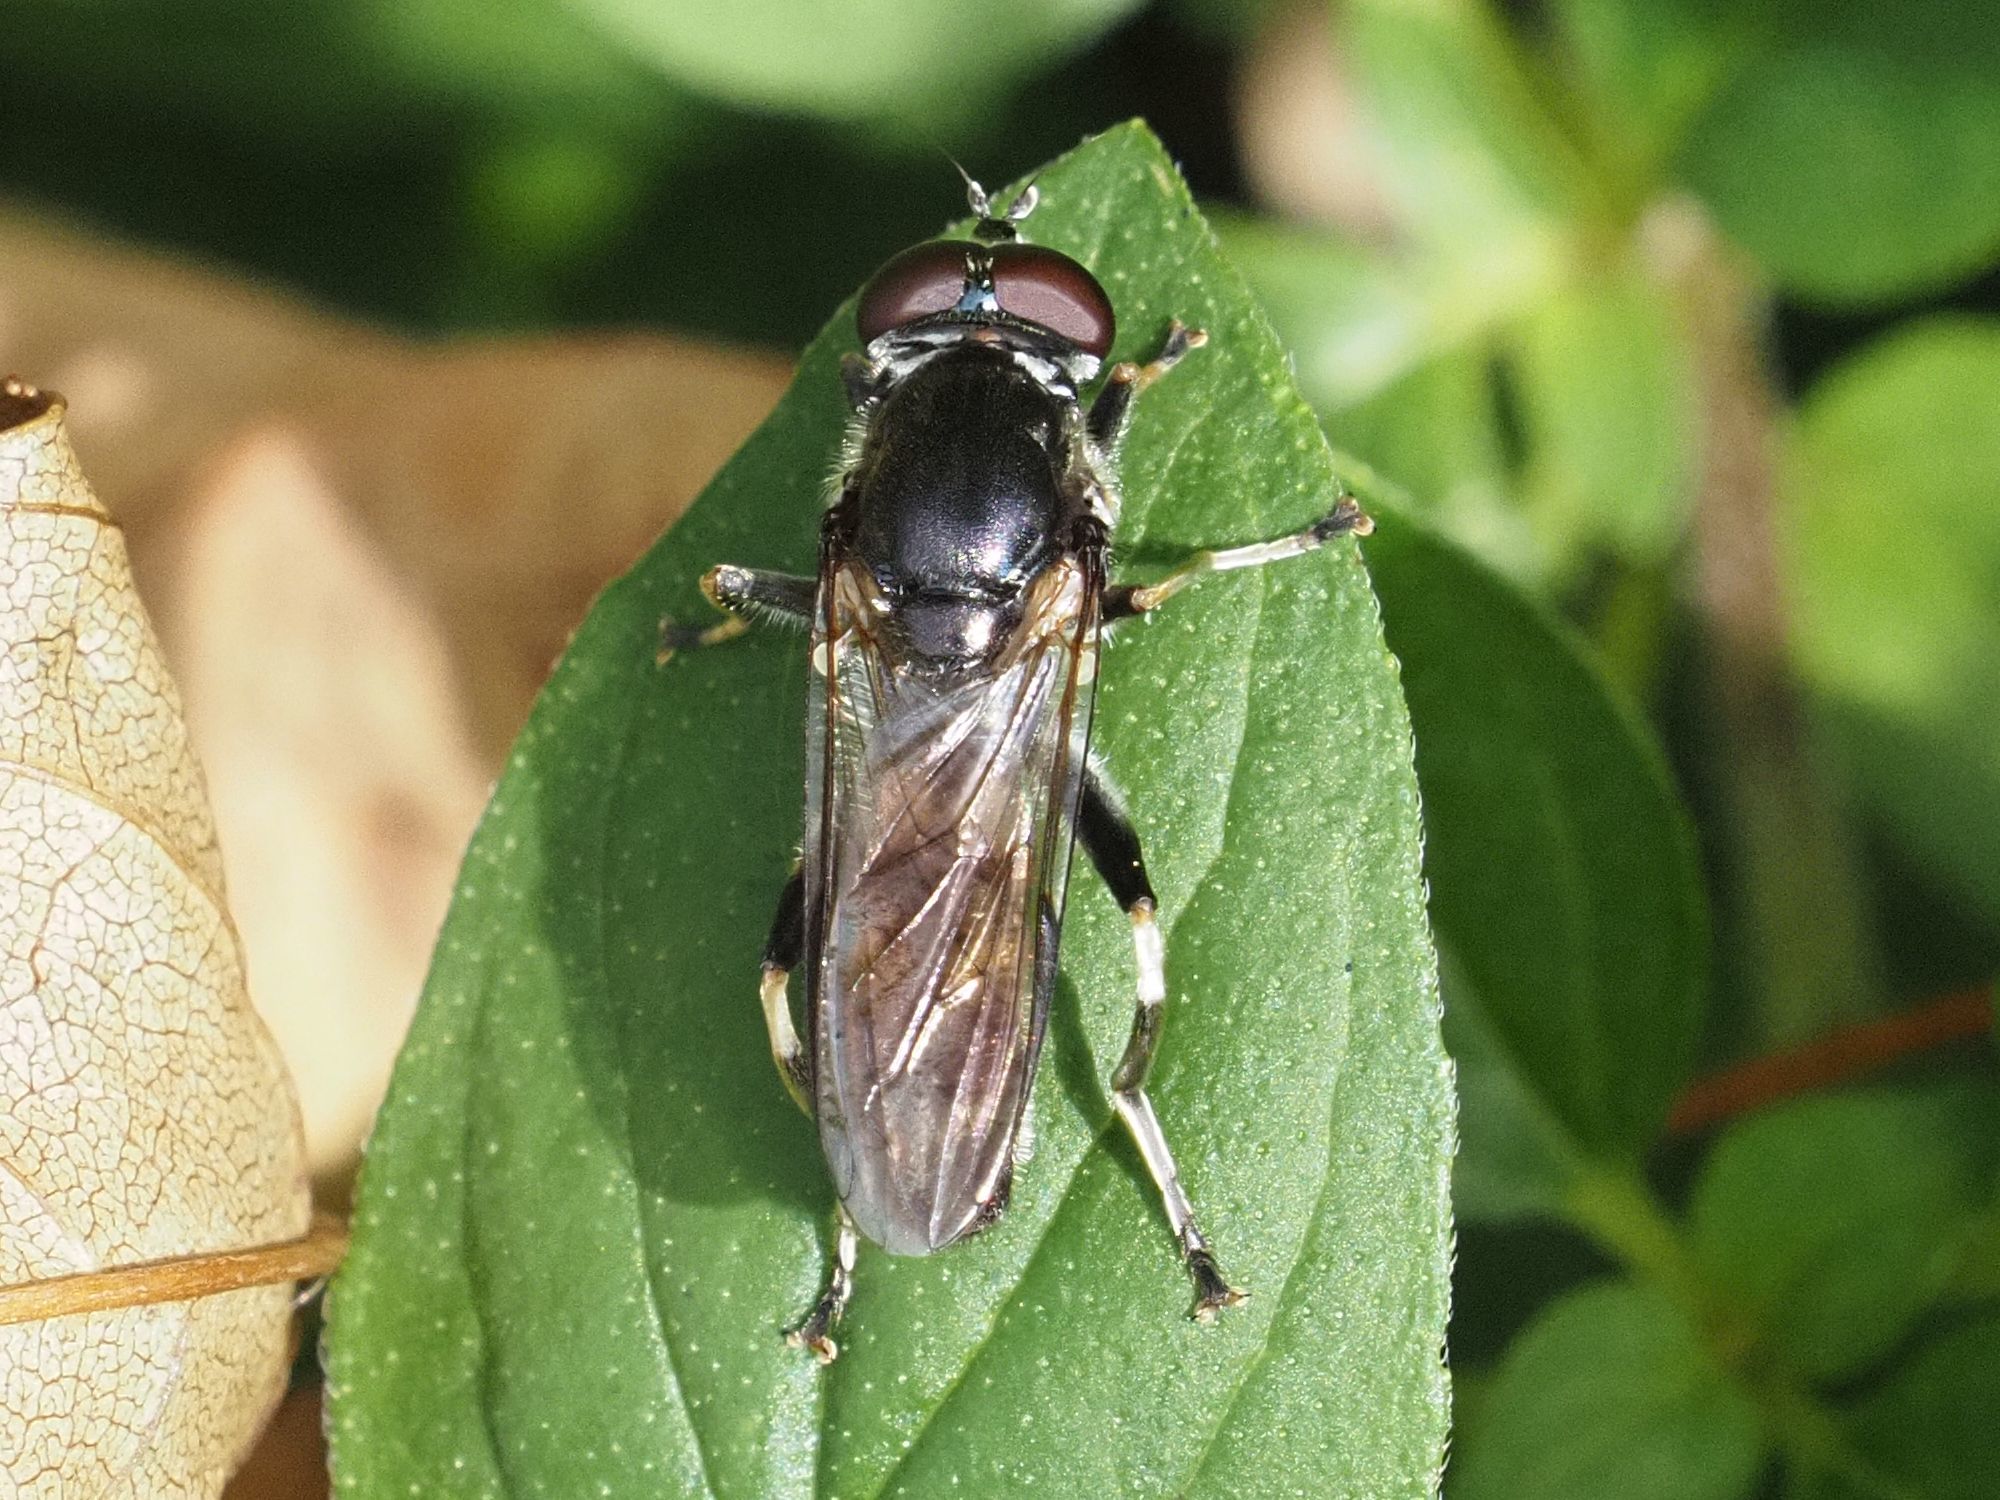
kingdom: Animalia
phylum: Arthropoda
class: Insecta
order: Diptera
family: Syrphidae
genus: Xylota
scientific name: Xylota florum
